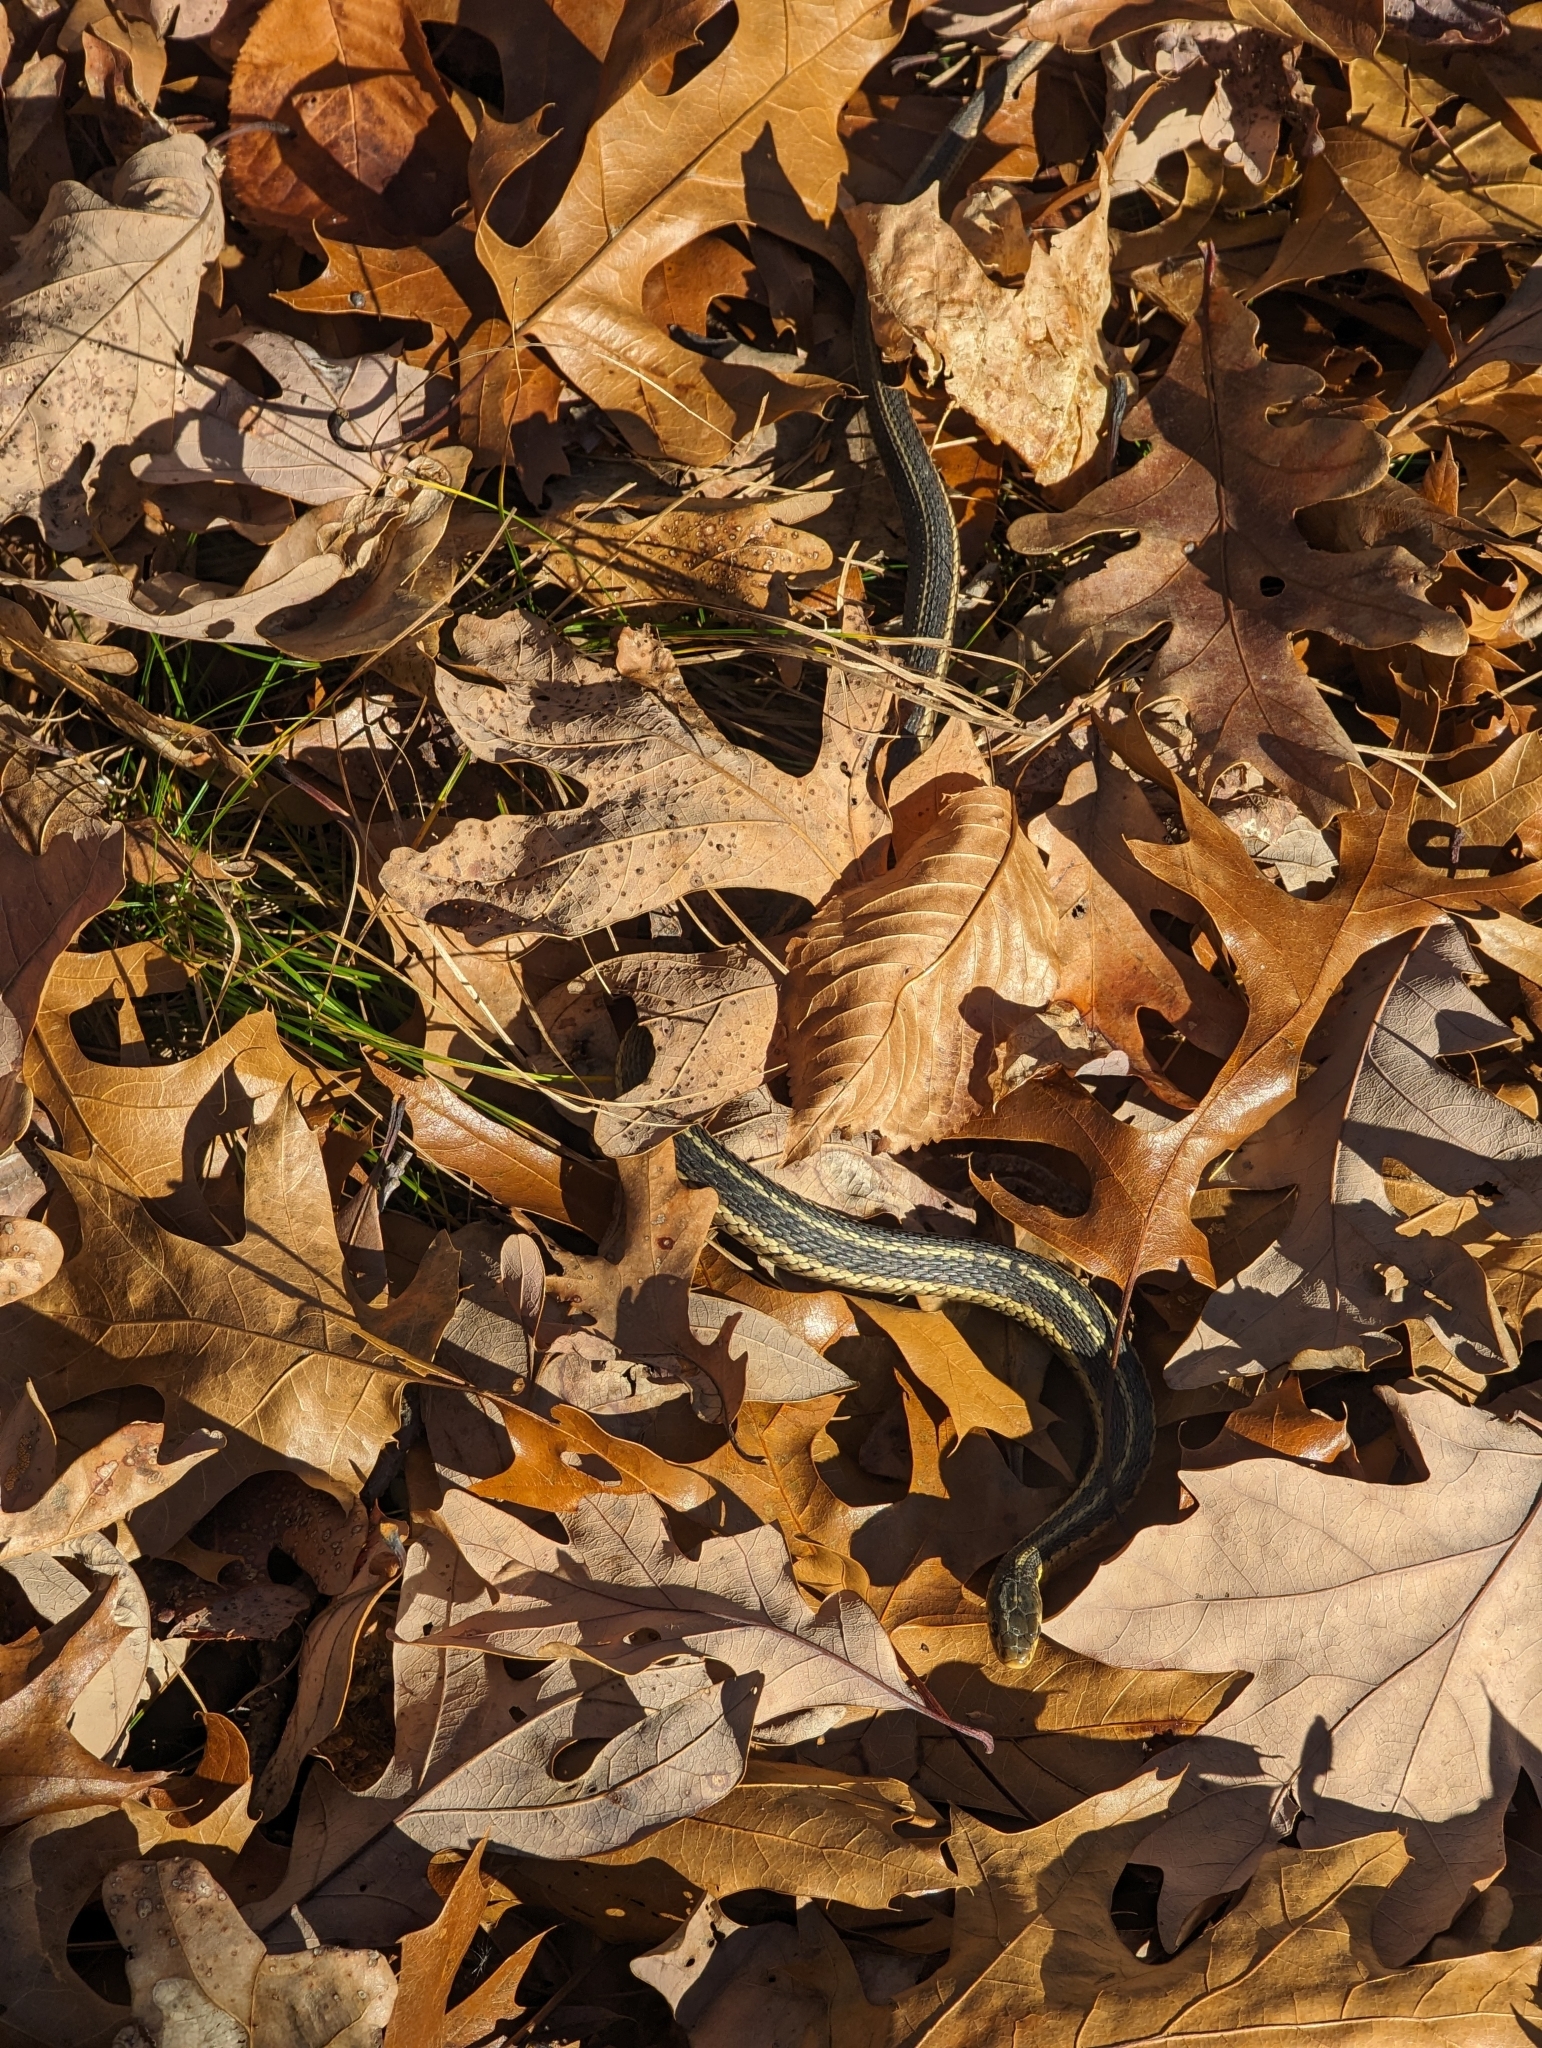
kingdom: Animalia
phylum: Chordata
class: Squamata
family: Colubridae
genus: Thamnophis
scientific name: Thamnophis sirtalis
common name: Common garter snake
